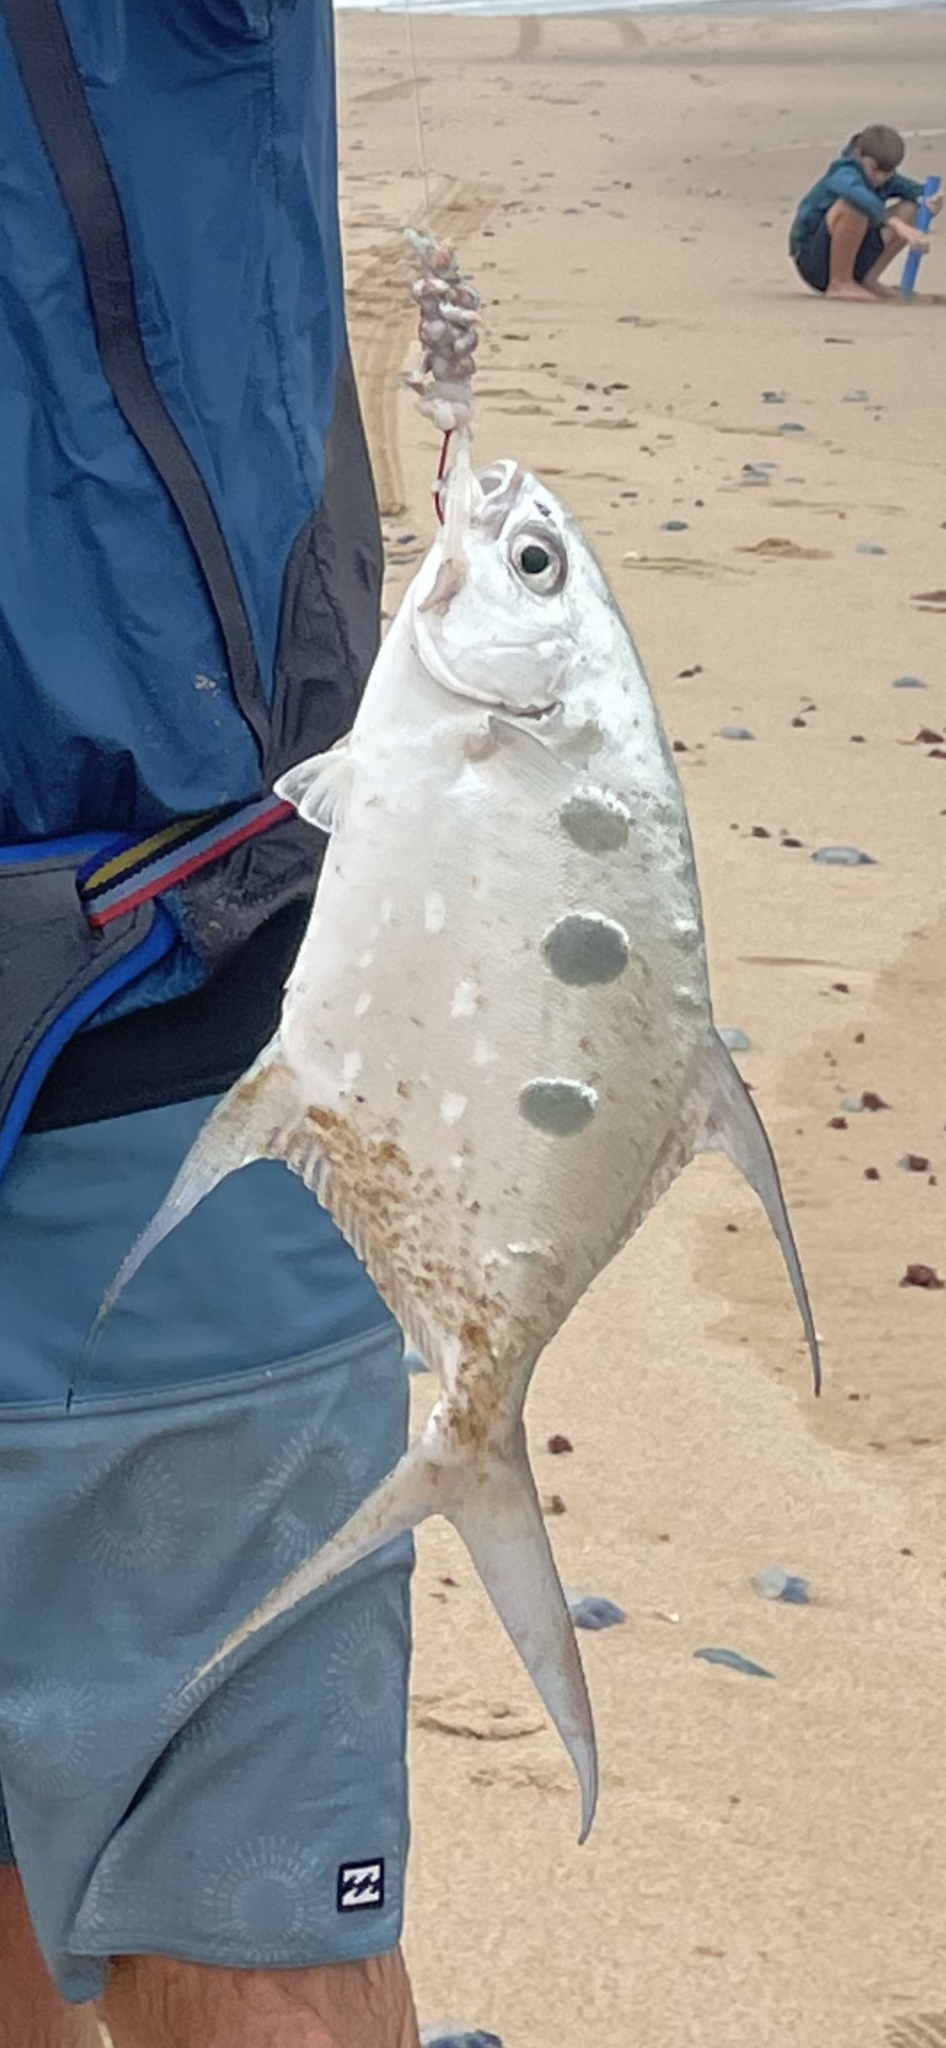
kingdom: Animalia
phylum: Chordata
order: Perciformes
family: Carangidae
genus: Trachinotus
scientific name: Trachinotus botla
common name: Common dart
